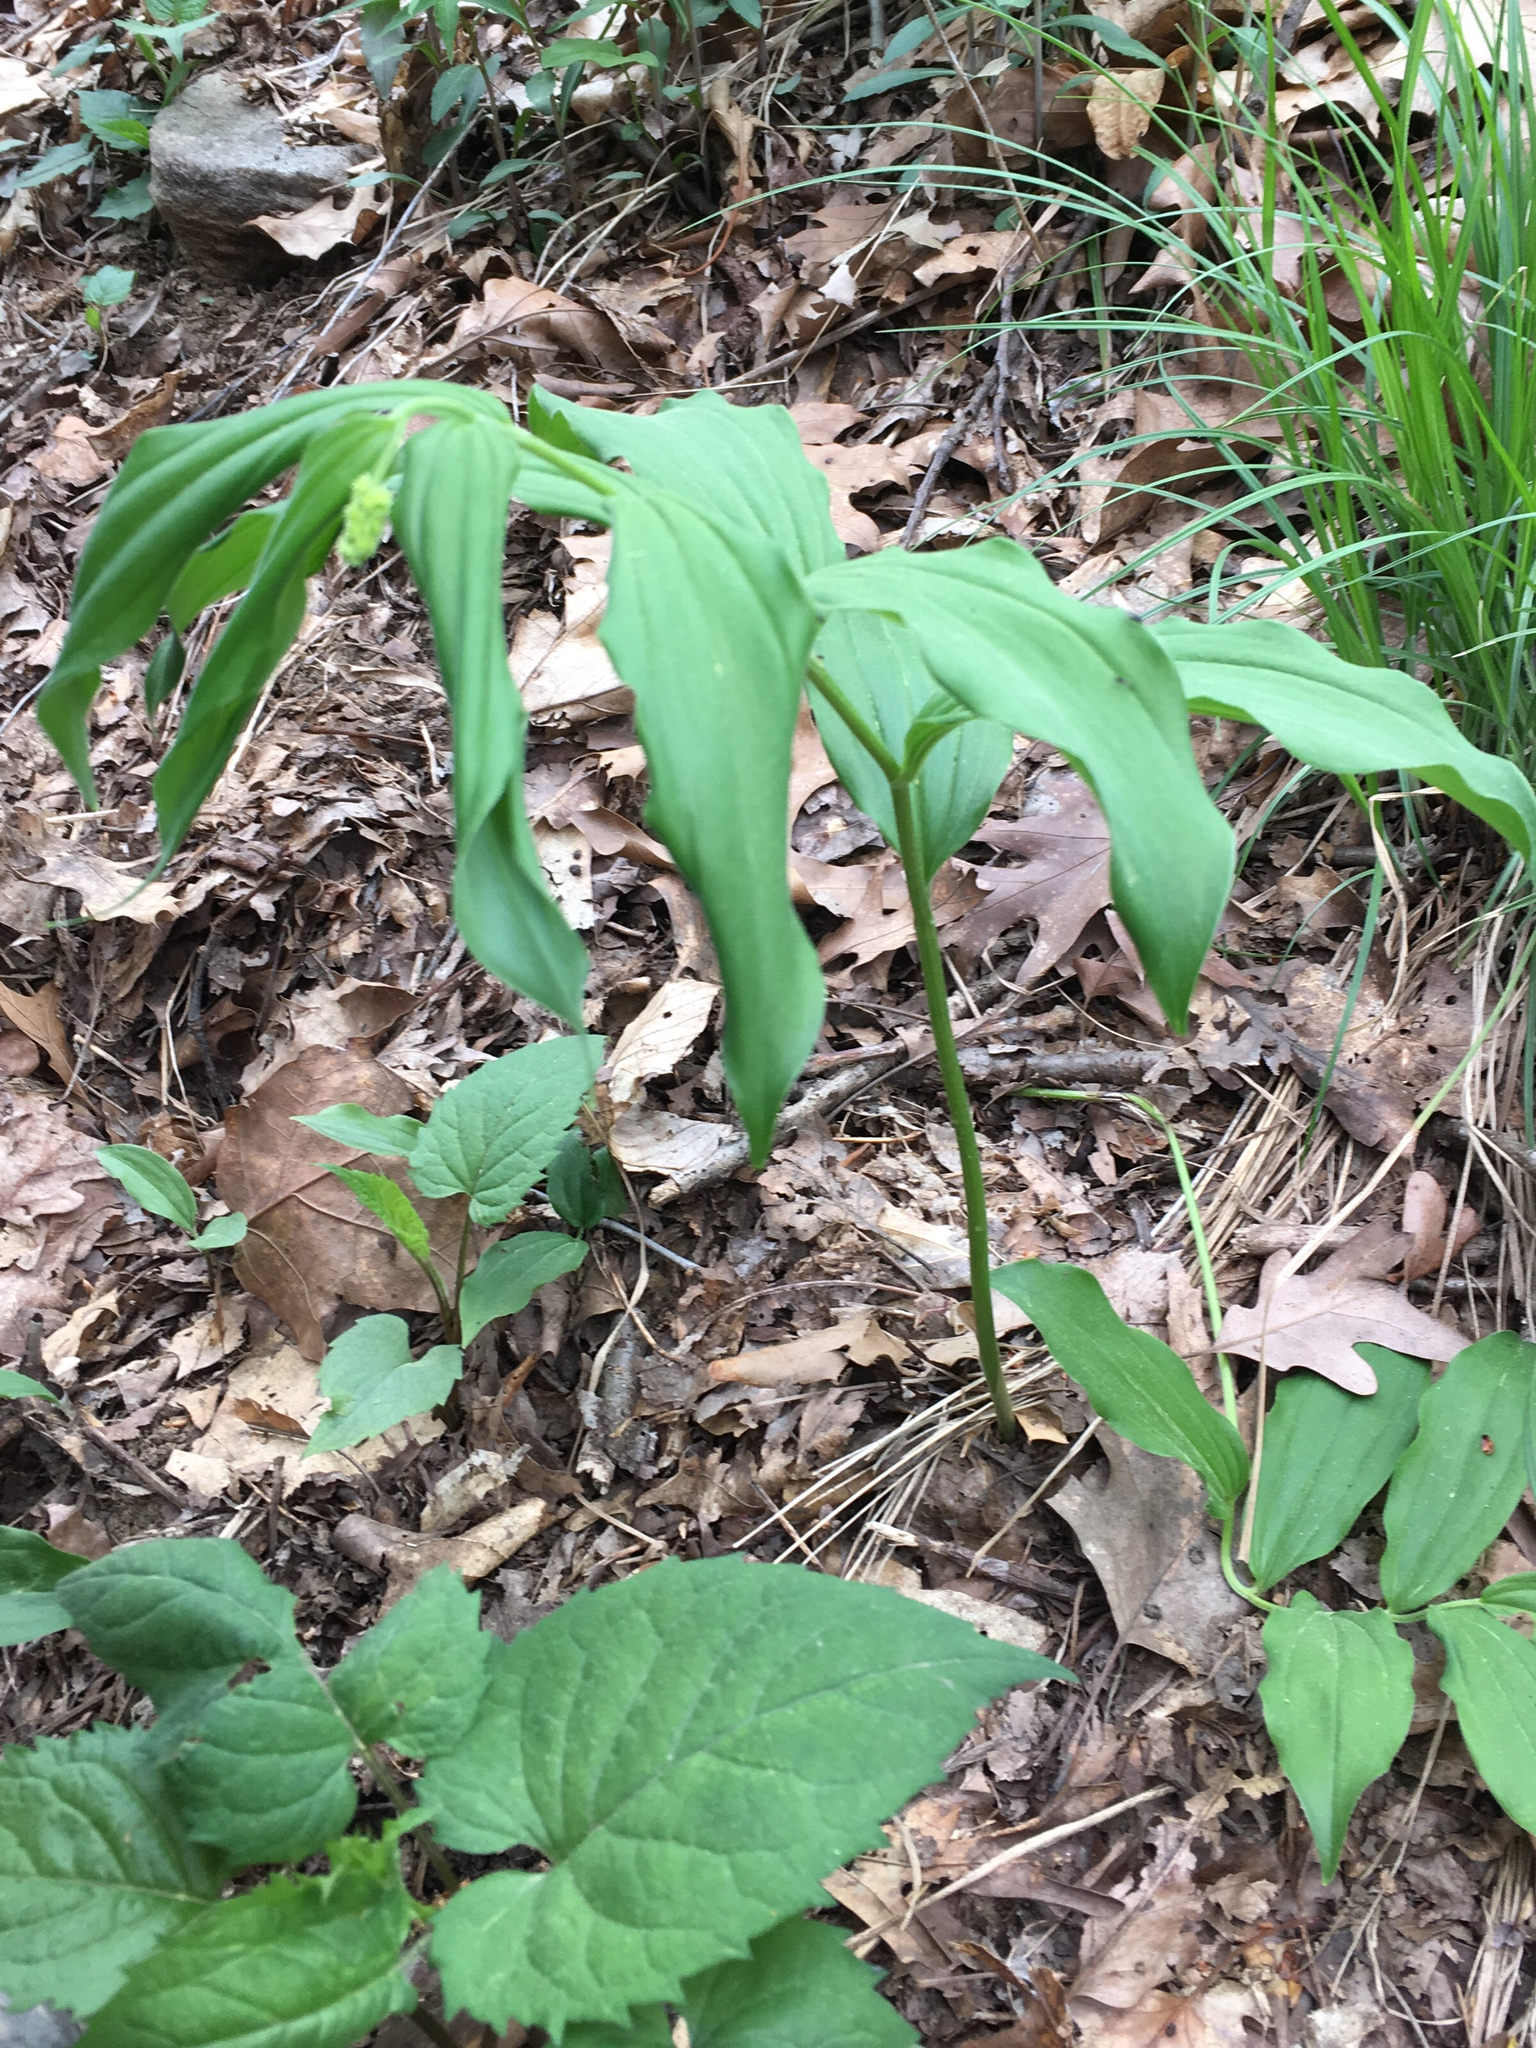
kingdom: Plantae
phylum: Tracheophyta
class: Liliopsida
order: Asparagales
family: Asparagaceae
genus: Maianthemum
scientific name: Maianthemum racemosum
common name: False spikenard
